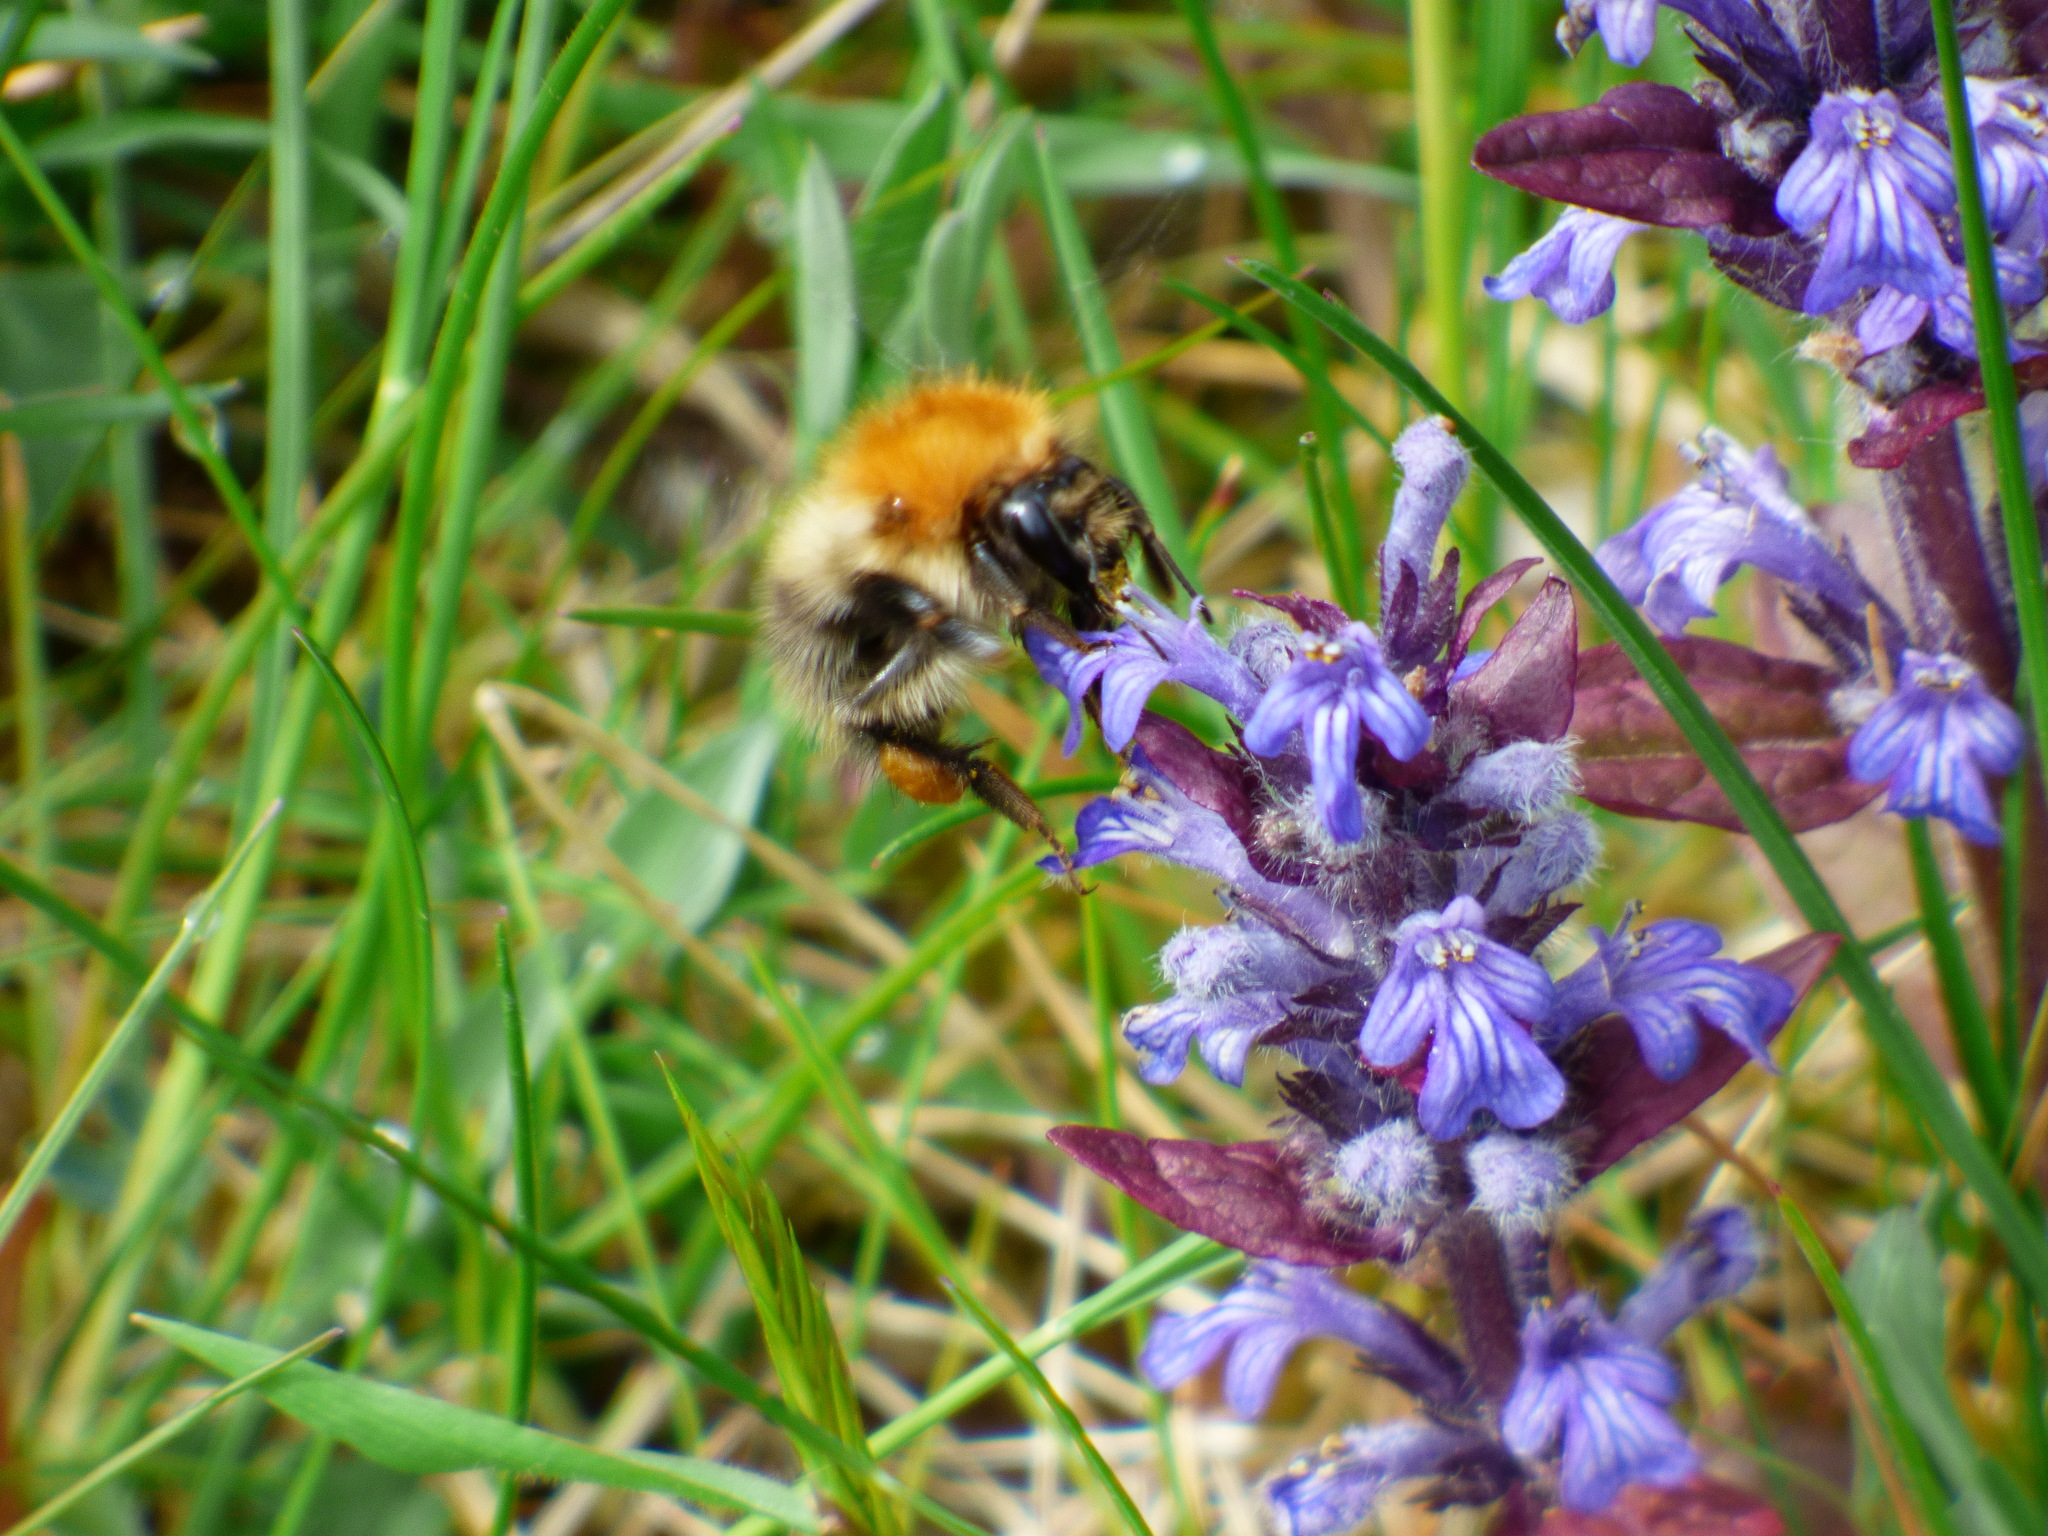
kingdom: Animalia
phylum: Arthropoda
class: Insecta
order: Hymenoptera
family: Apidae
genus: Bombus
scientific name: Bombus pascuorum
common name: Common carder bee
